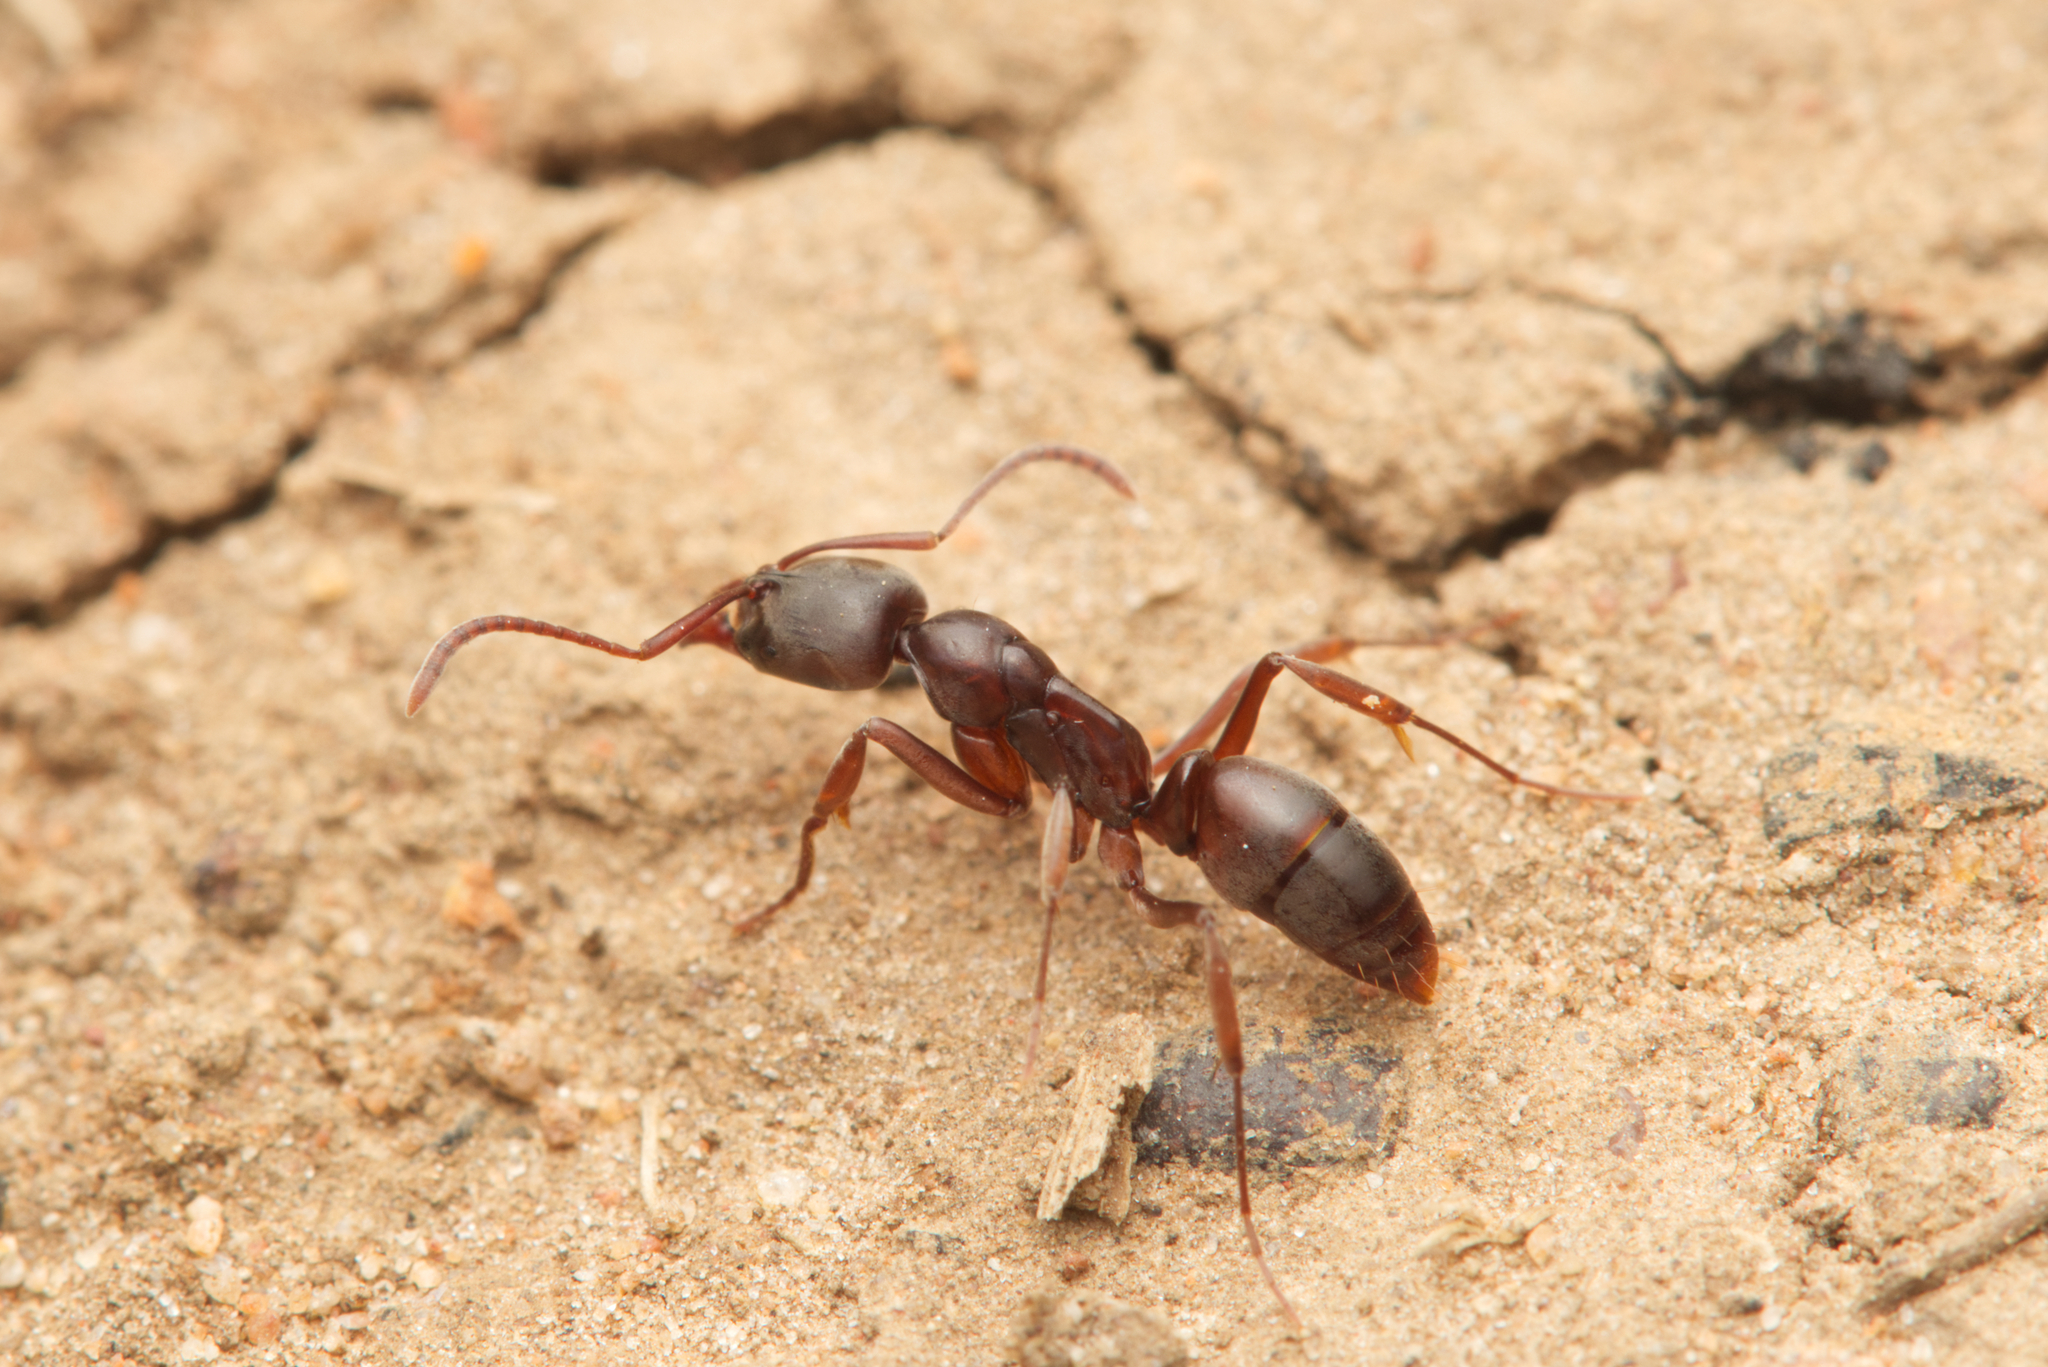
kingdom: Animalia
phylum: Arthropoda
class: Insecta
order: Hymenoptera
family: Formicidae
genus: Mesoponera
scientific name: Mesoponera
